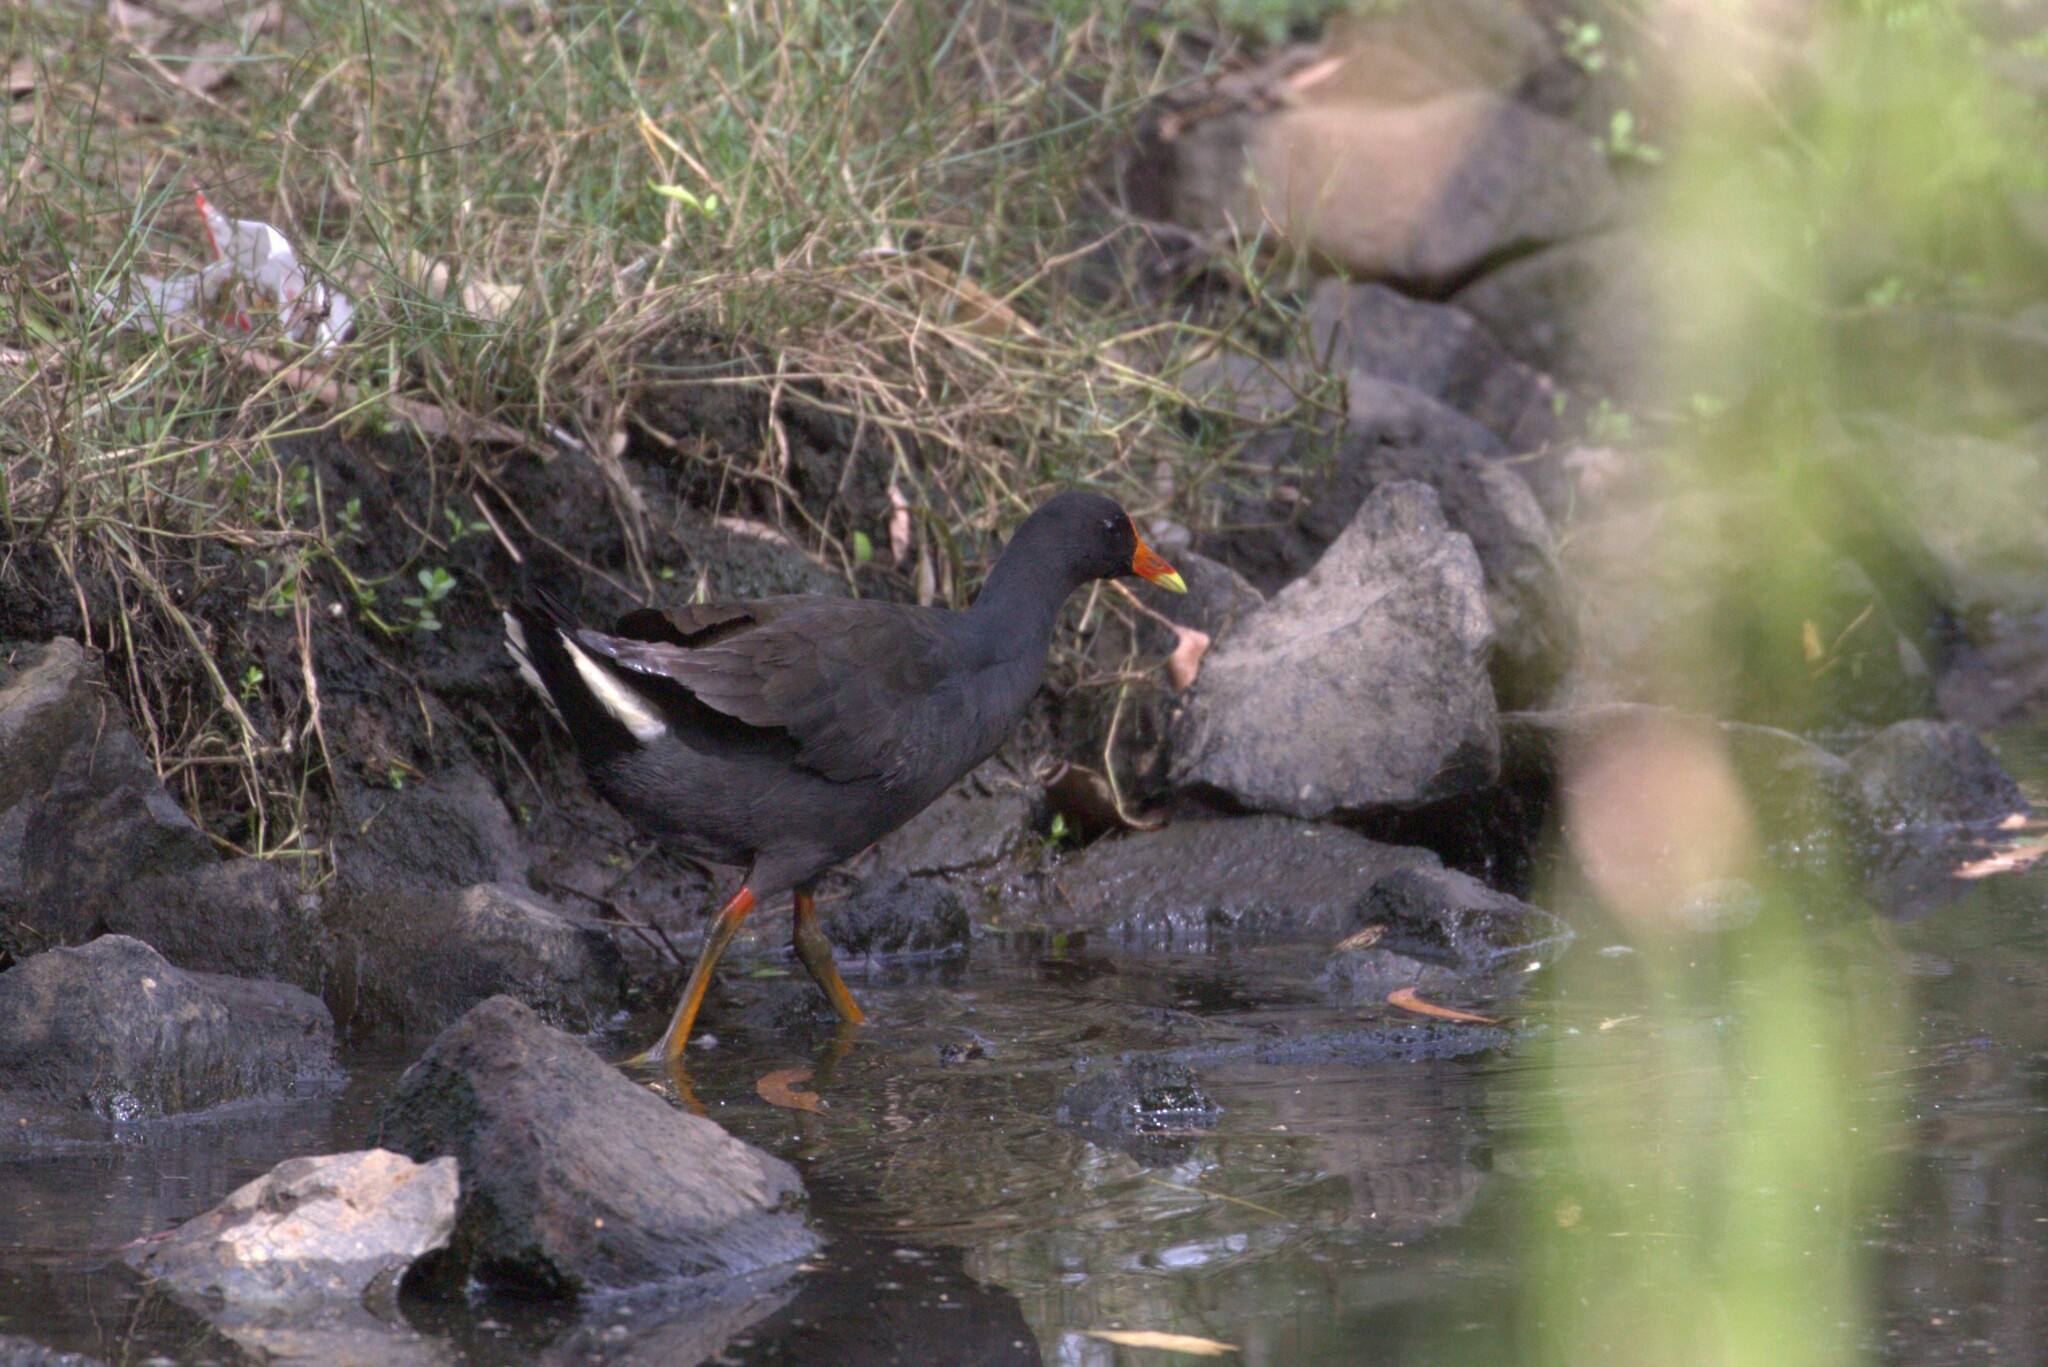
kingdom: Animalia
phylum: Chordata
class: Aves
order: Gruiformes
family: Rallidae
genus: Gallinula
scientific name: Gallinula tenebrosa
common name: Dusky moorhen
